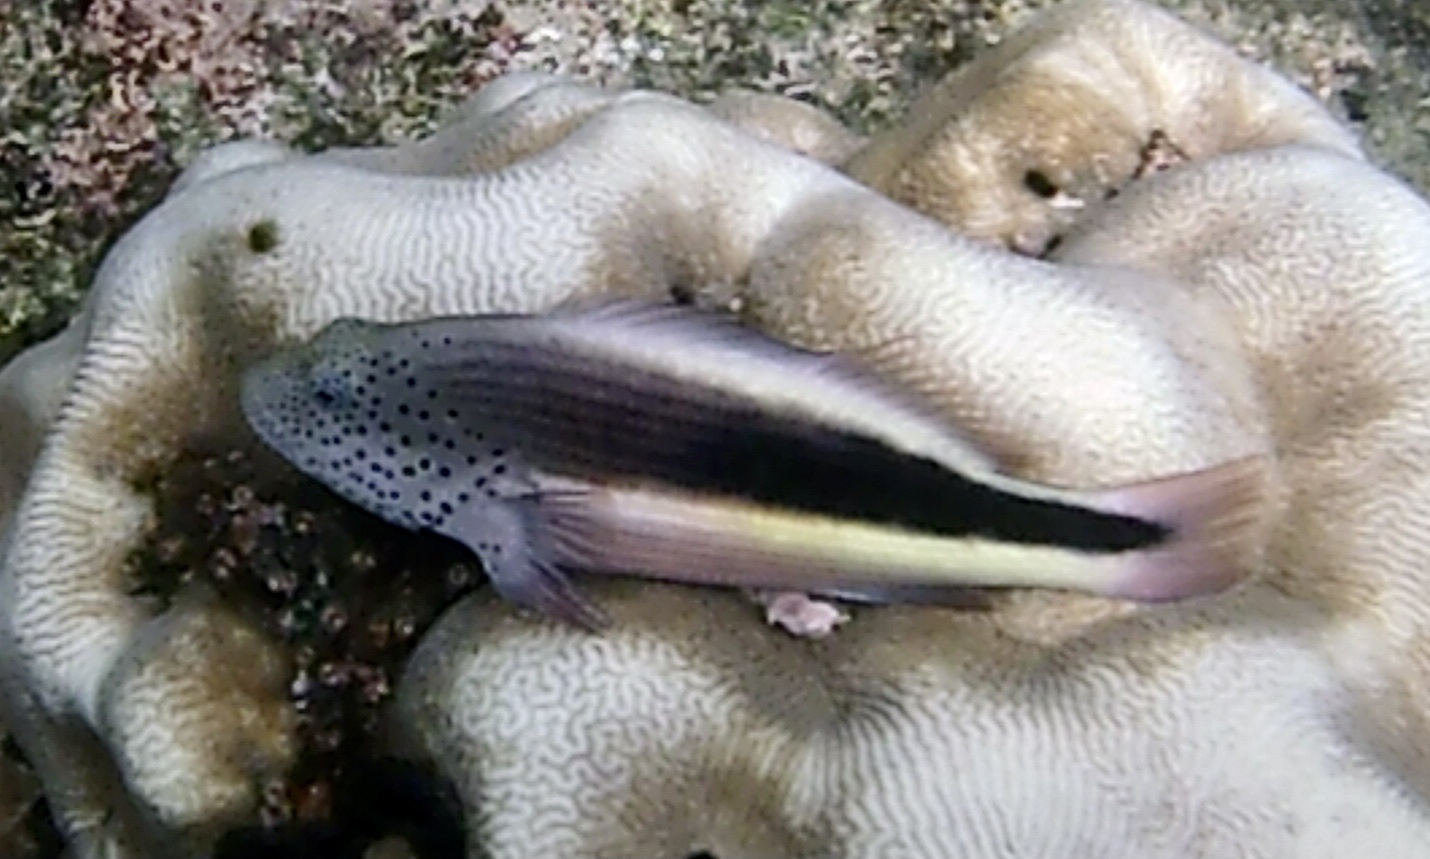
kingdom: Animalia
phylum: Chordata
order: Perciformes
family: Cirrhitidae
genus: Paracirrhites
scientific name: Paracirrhites forsteri
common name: Freckled hawkfish
